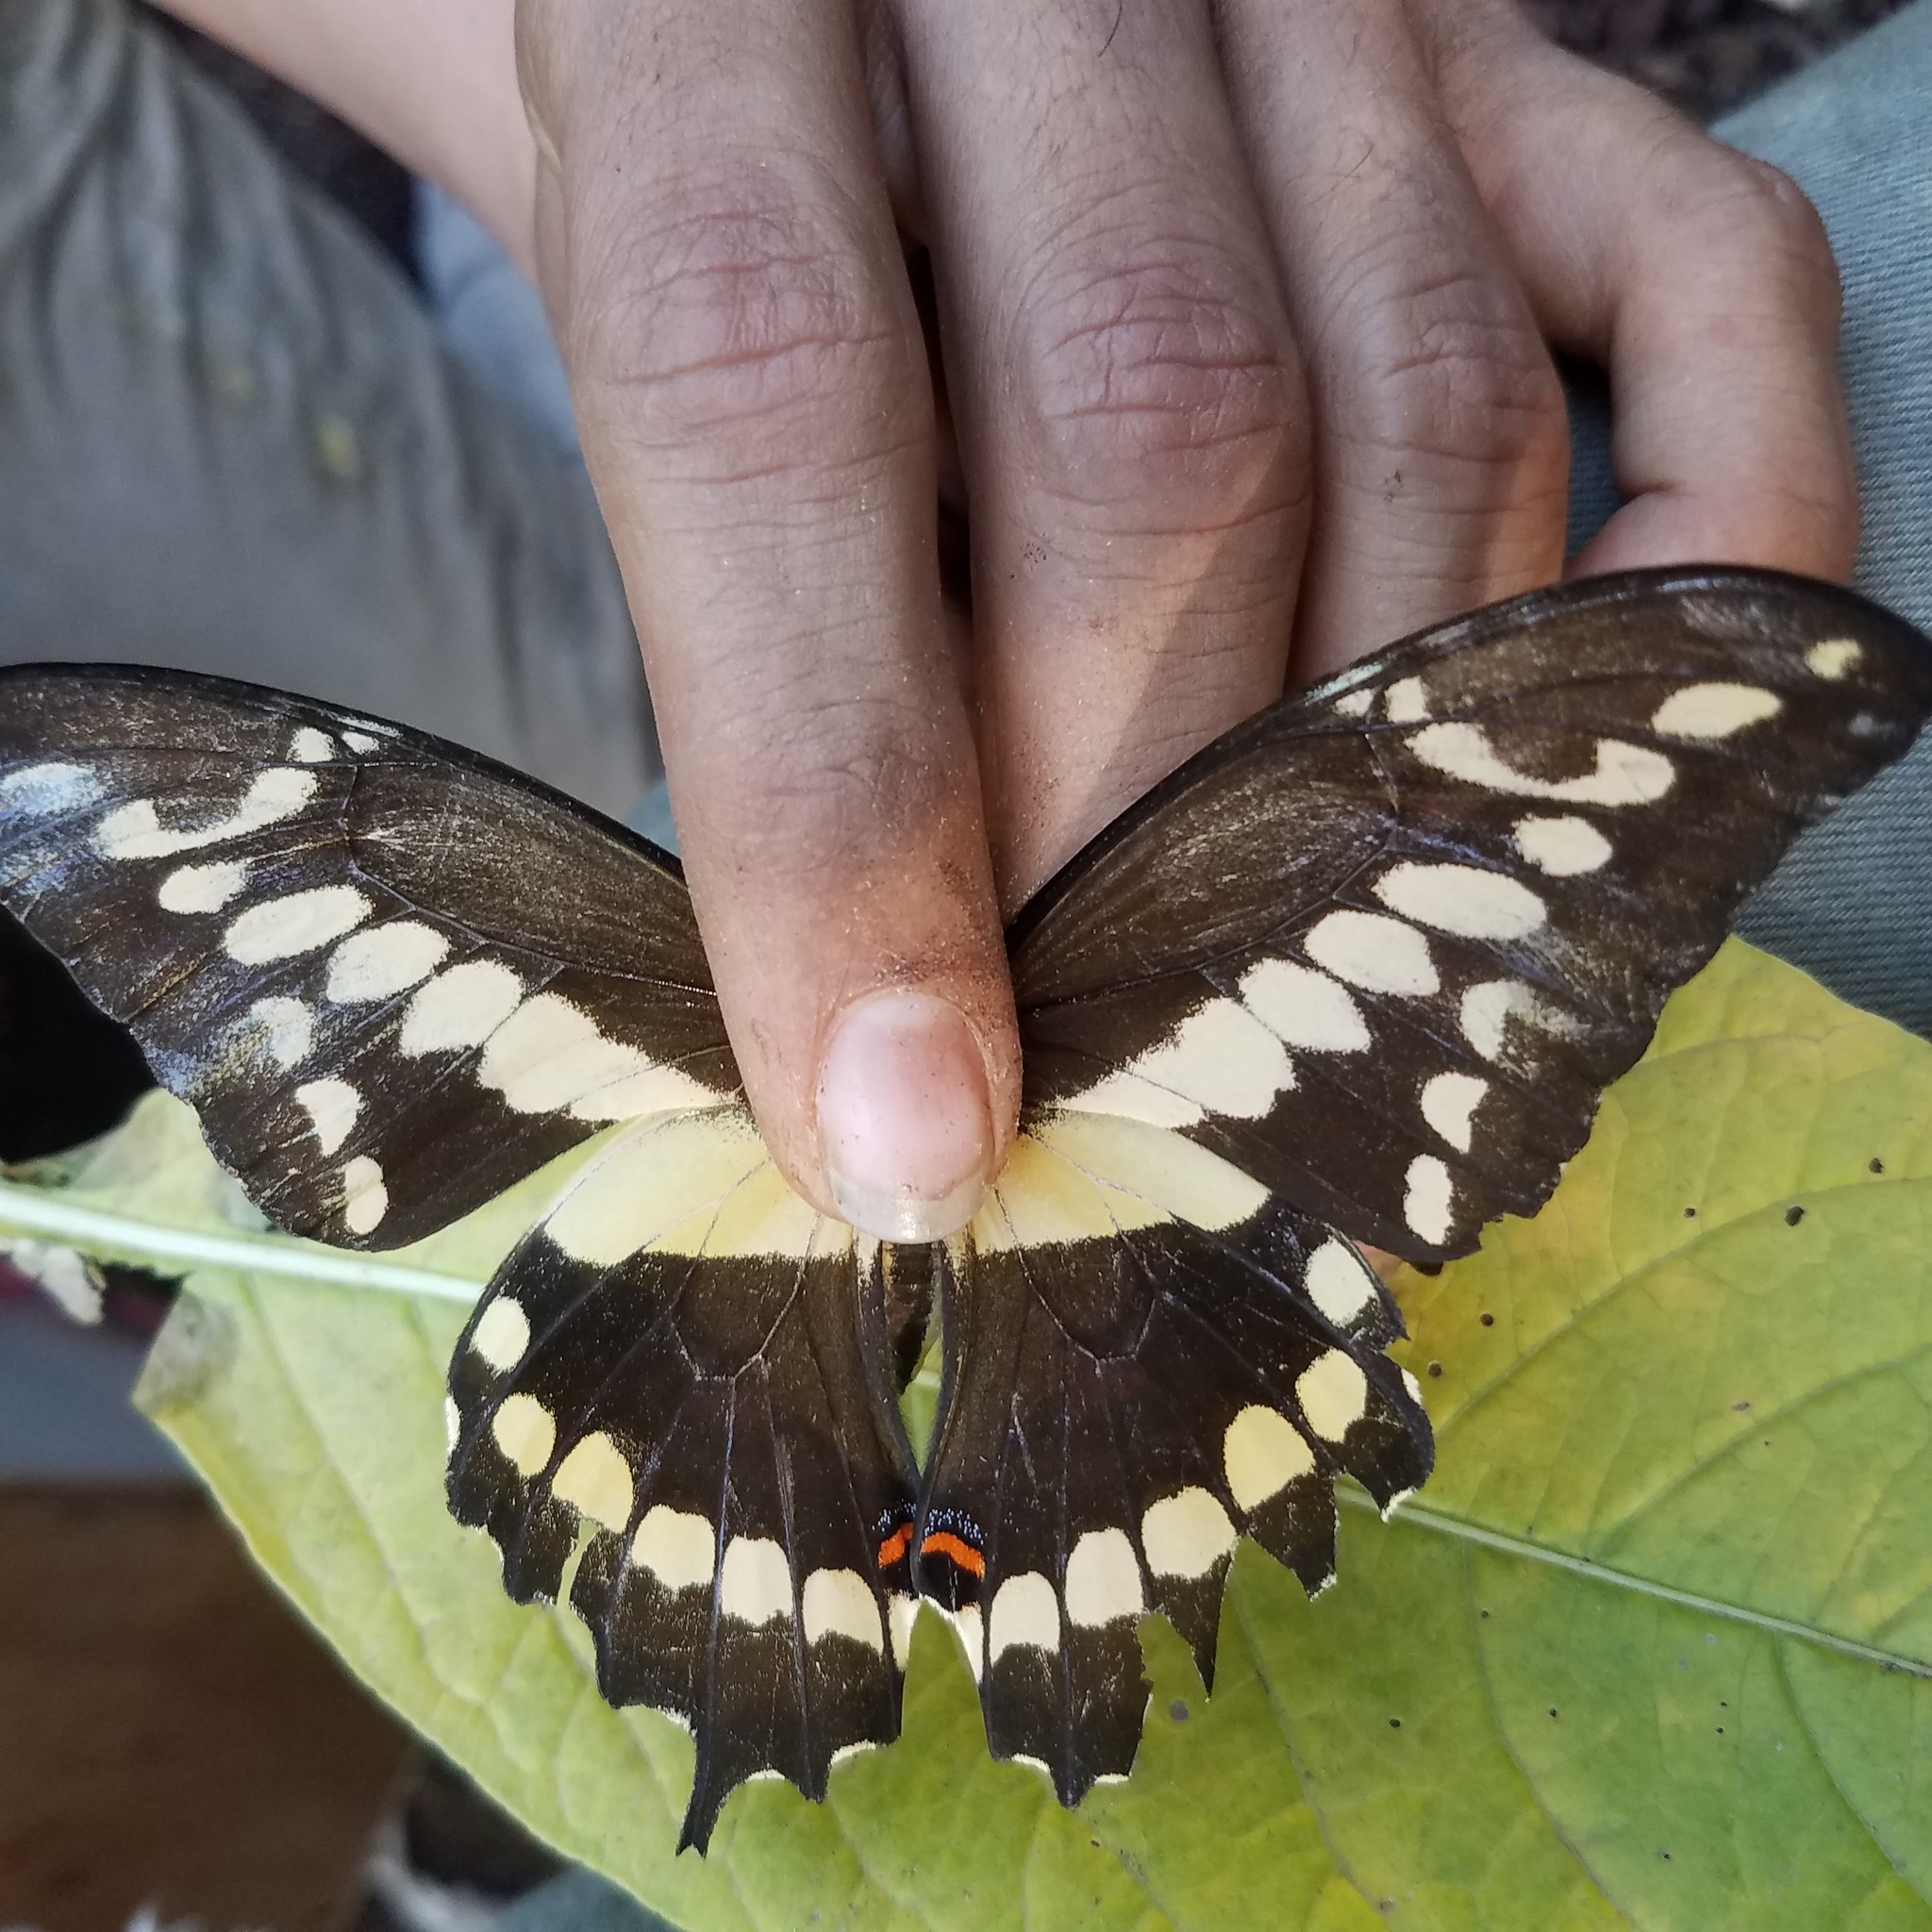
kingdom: Animalia
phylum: Arthropoda
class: Insecta
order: Lepidoptera
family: Papilionidae
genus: Papilio
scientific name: Papilio rumiko
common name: Western giant swallowtail
